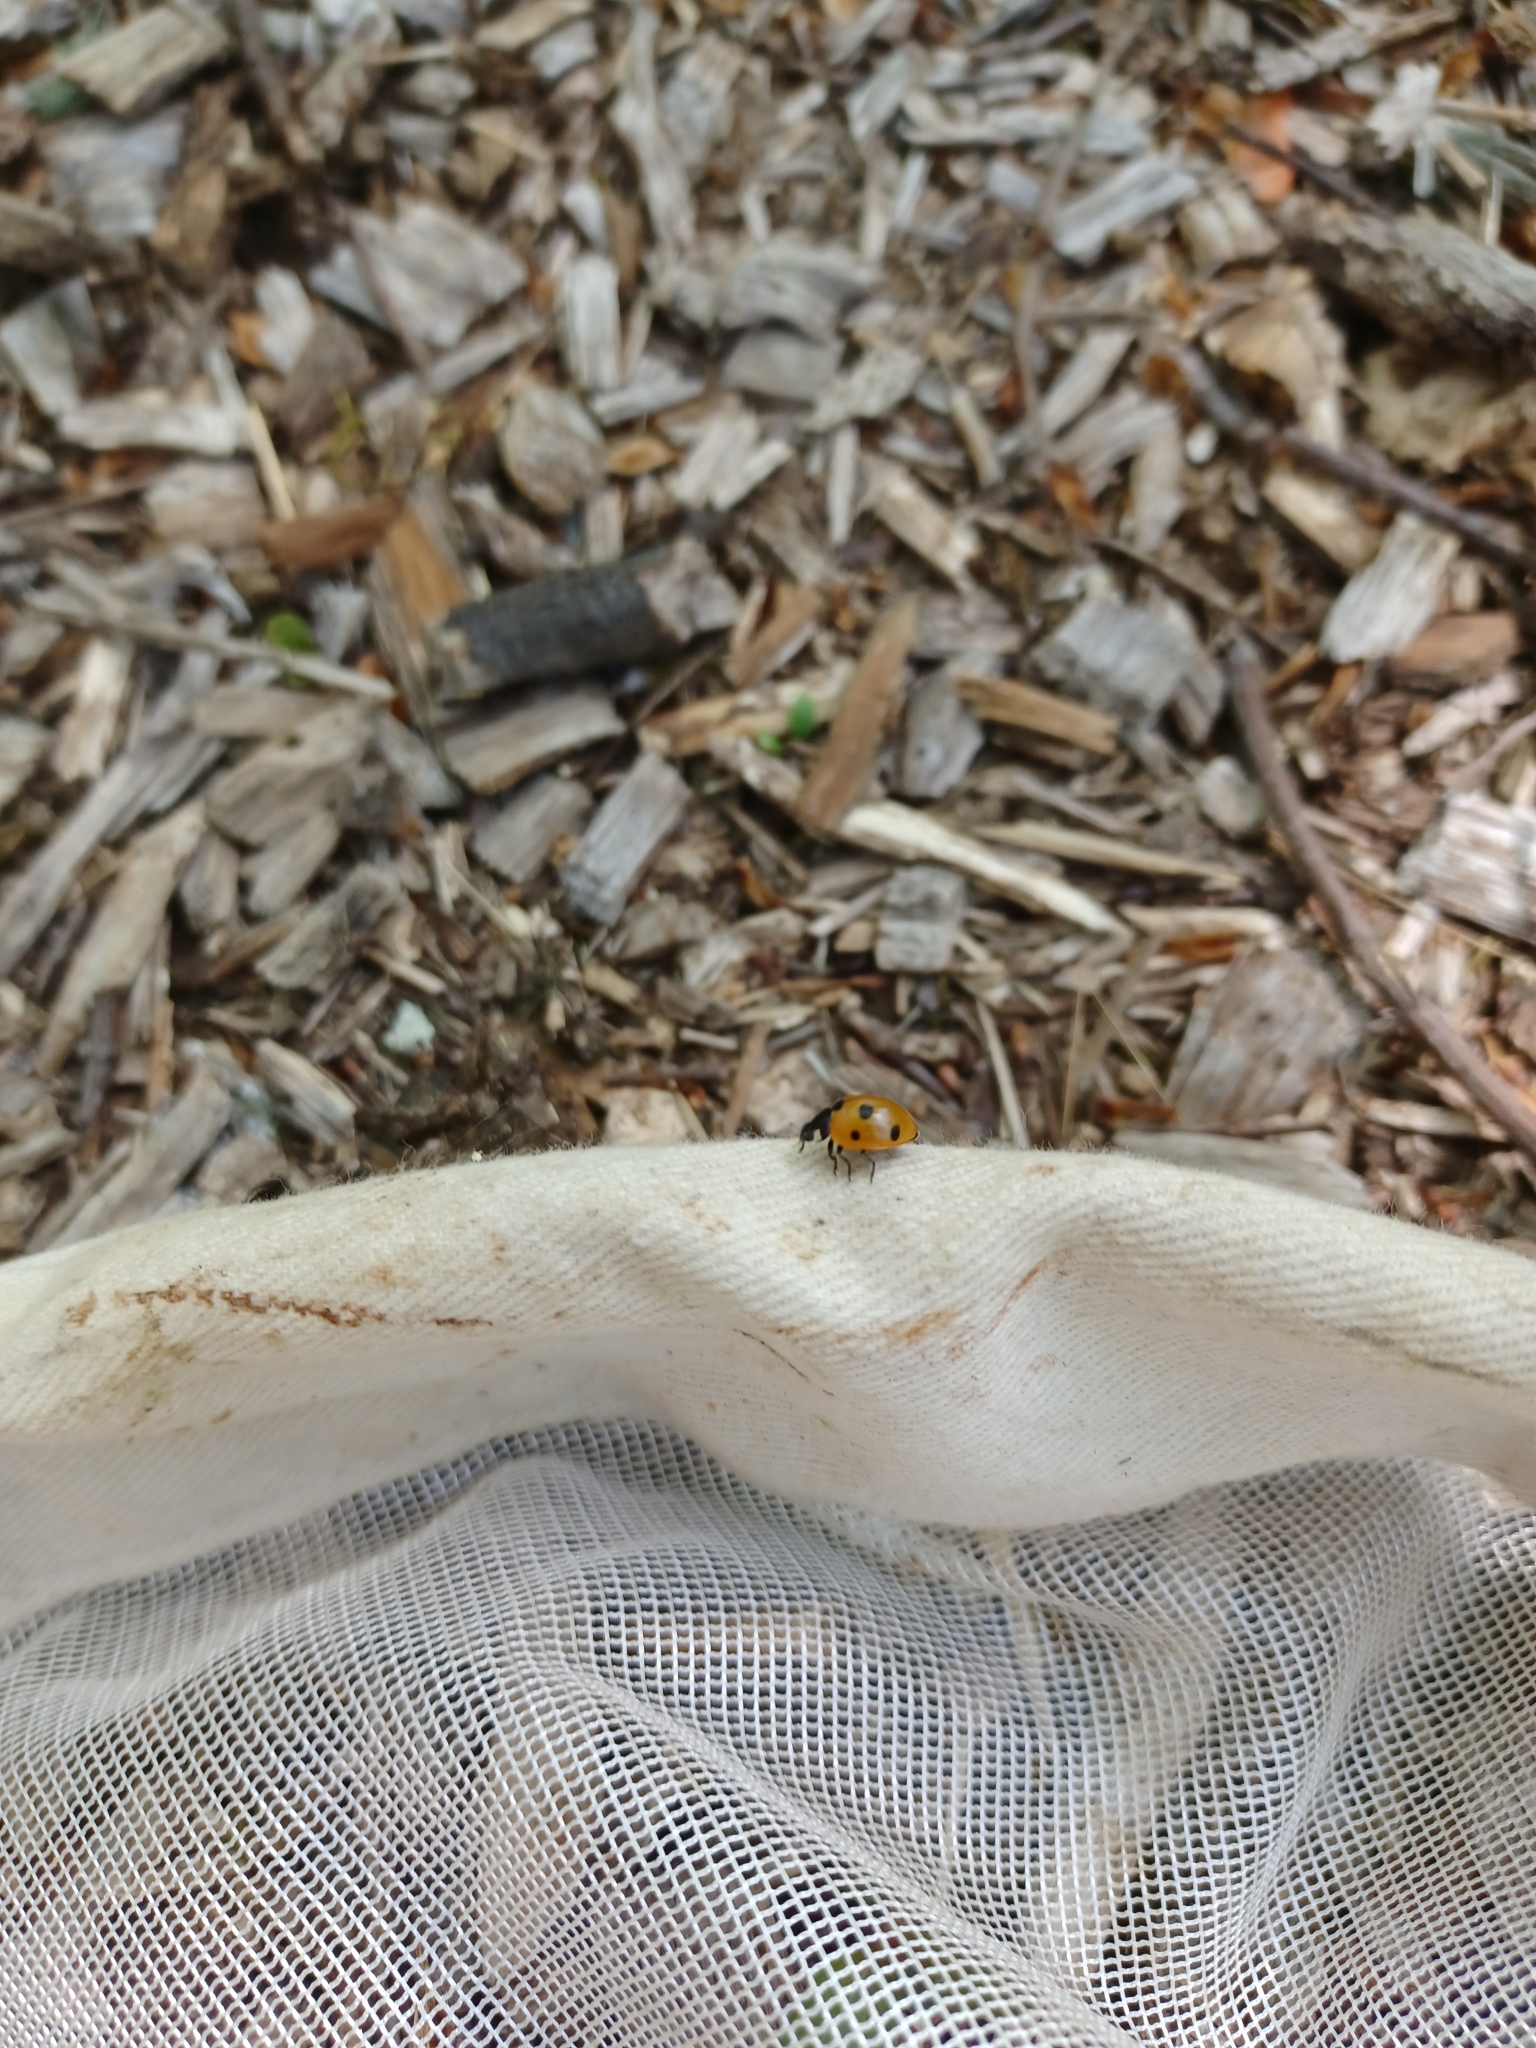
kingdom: Animalia
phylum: Arthropoda
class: Insecta
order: Coleoptera
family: Coccinellidae
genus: Coccinella
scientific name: Coccinella septempunctata
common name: Sevenspotted lady beetle
